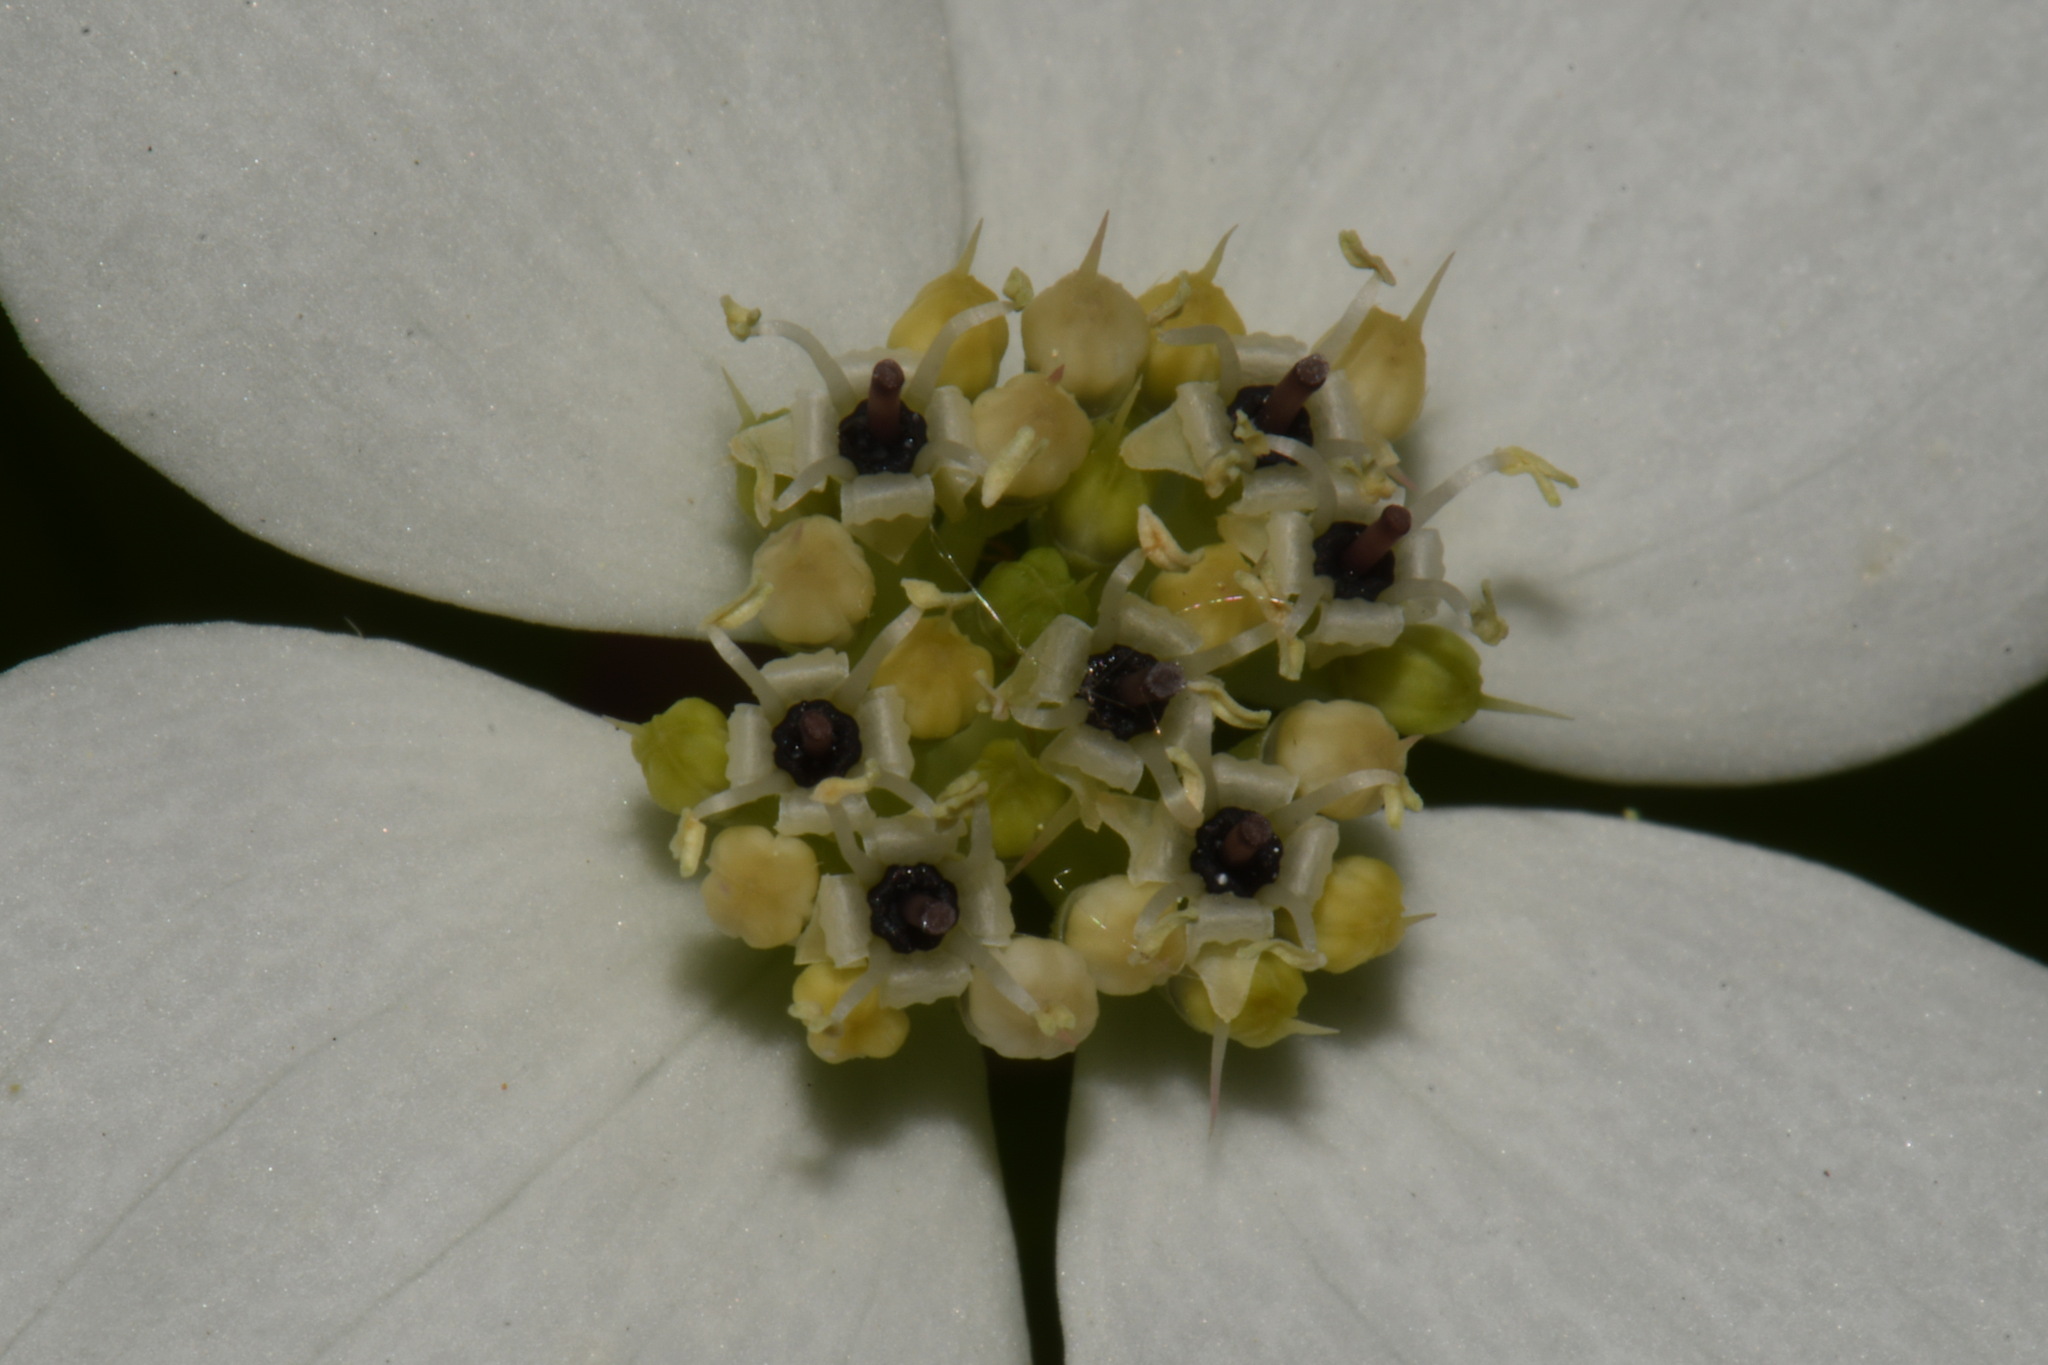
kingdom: Plantae
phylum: Tracheophyta
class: Magnoliopsida
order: Cornales
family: Cornaceae
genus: Cornus
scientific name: Cornus canadensis
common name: Creeping dogwood
